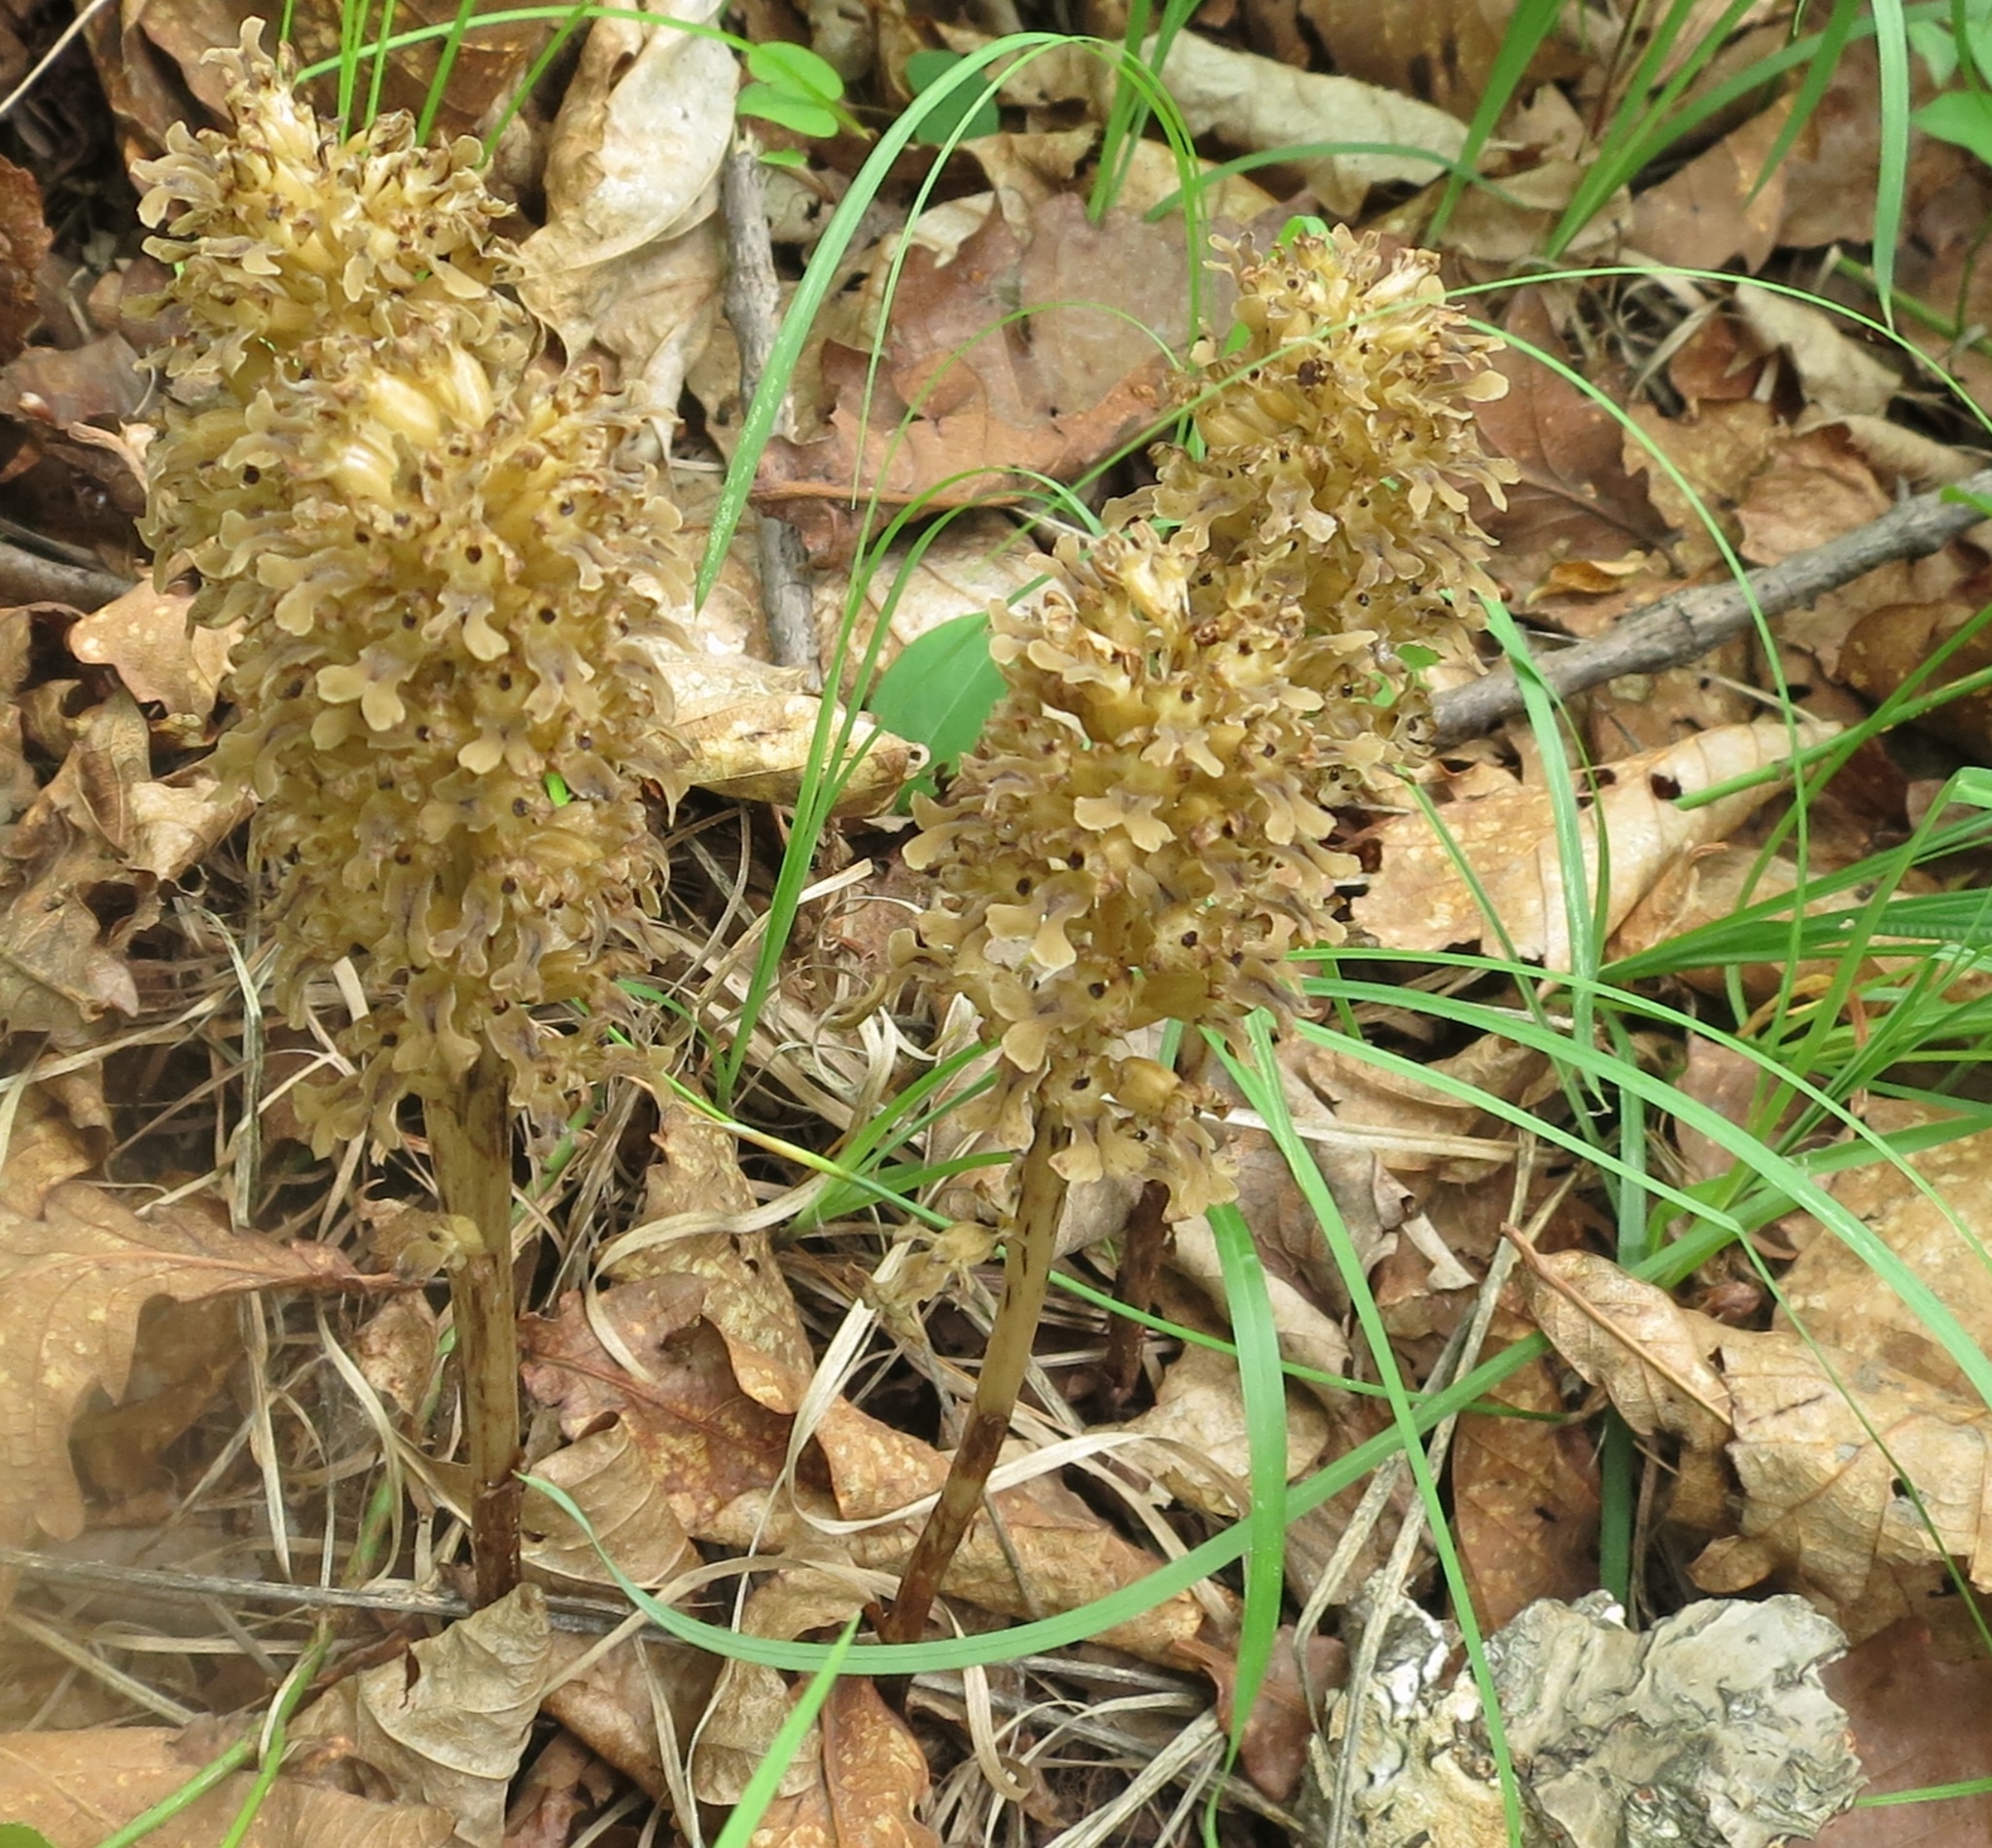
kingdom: Plantae
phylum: Tracheophyta
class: Liliopsida
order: Asparagales
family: Orchidaceae
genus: Neottia
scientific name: Neottia papilligera
